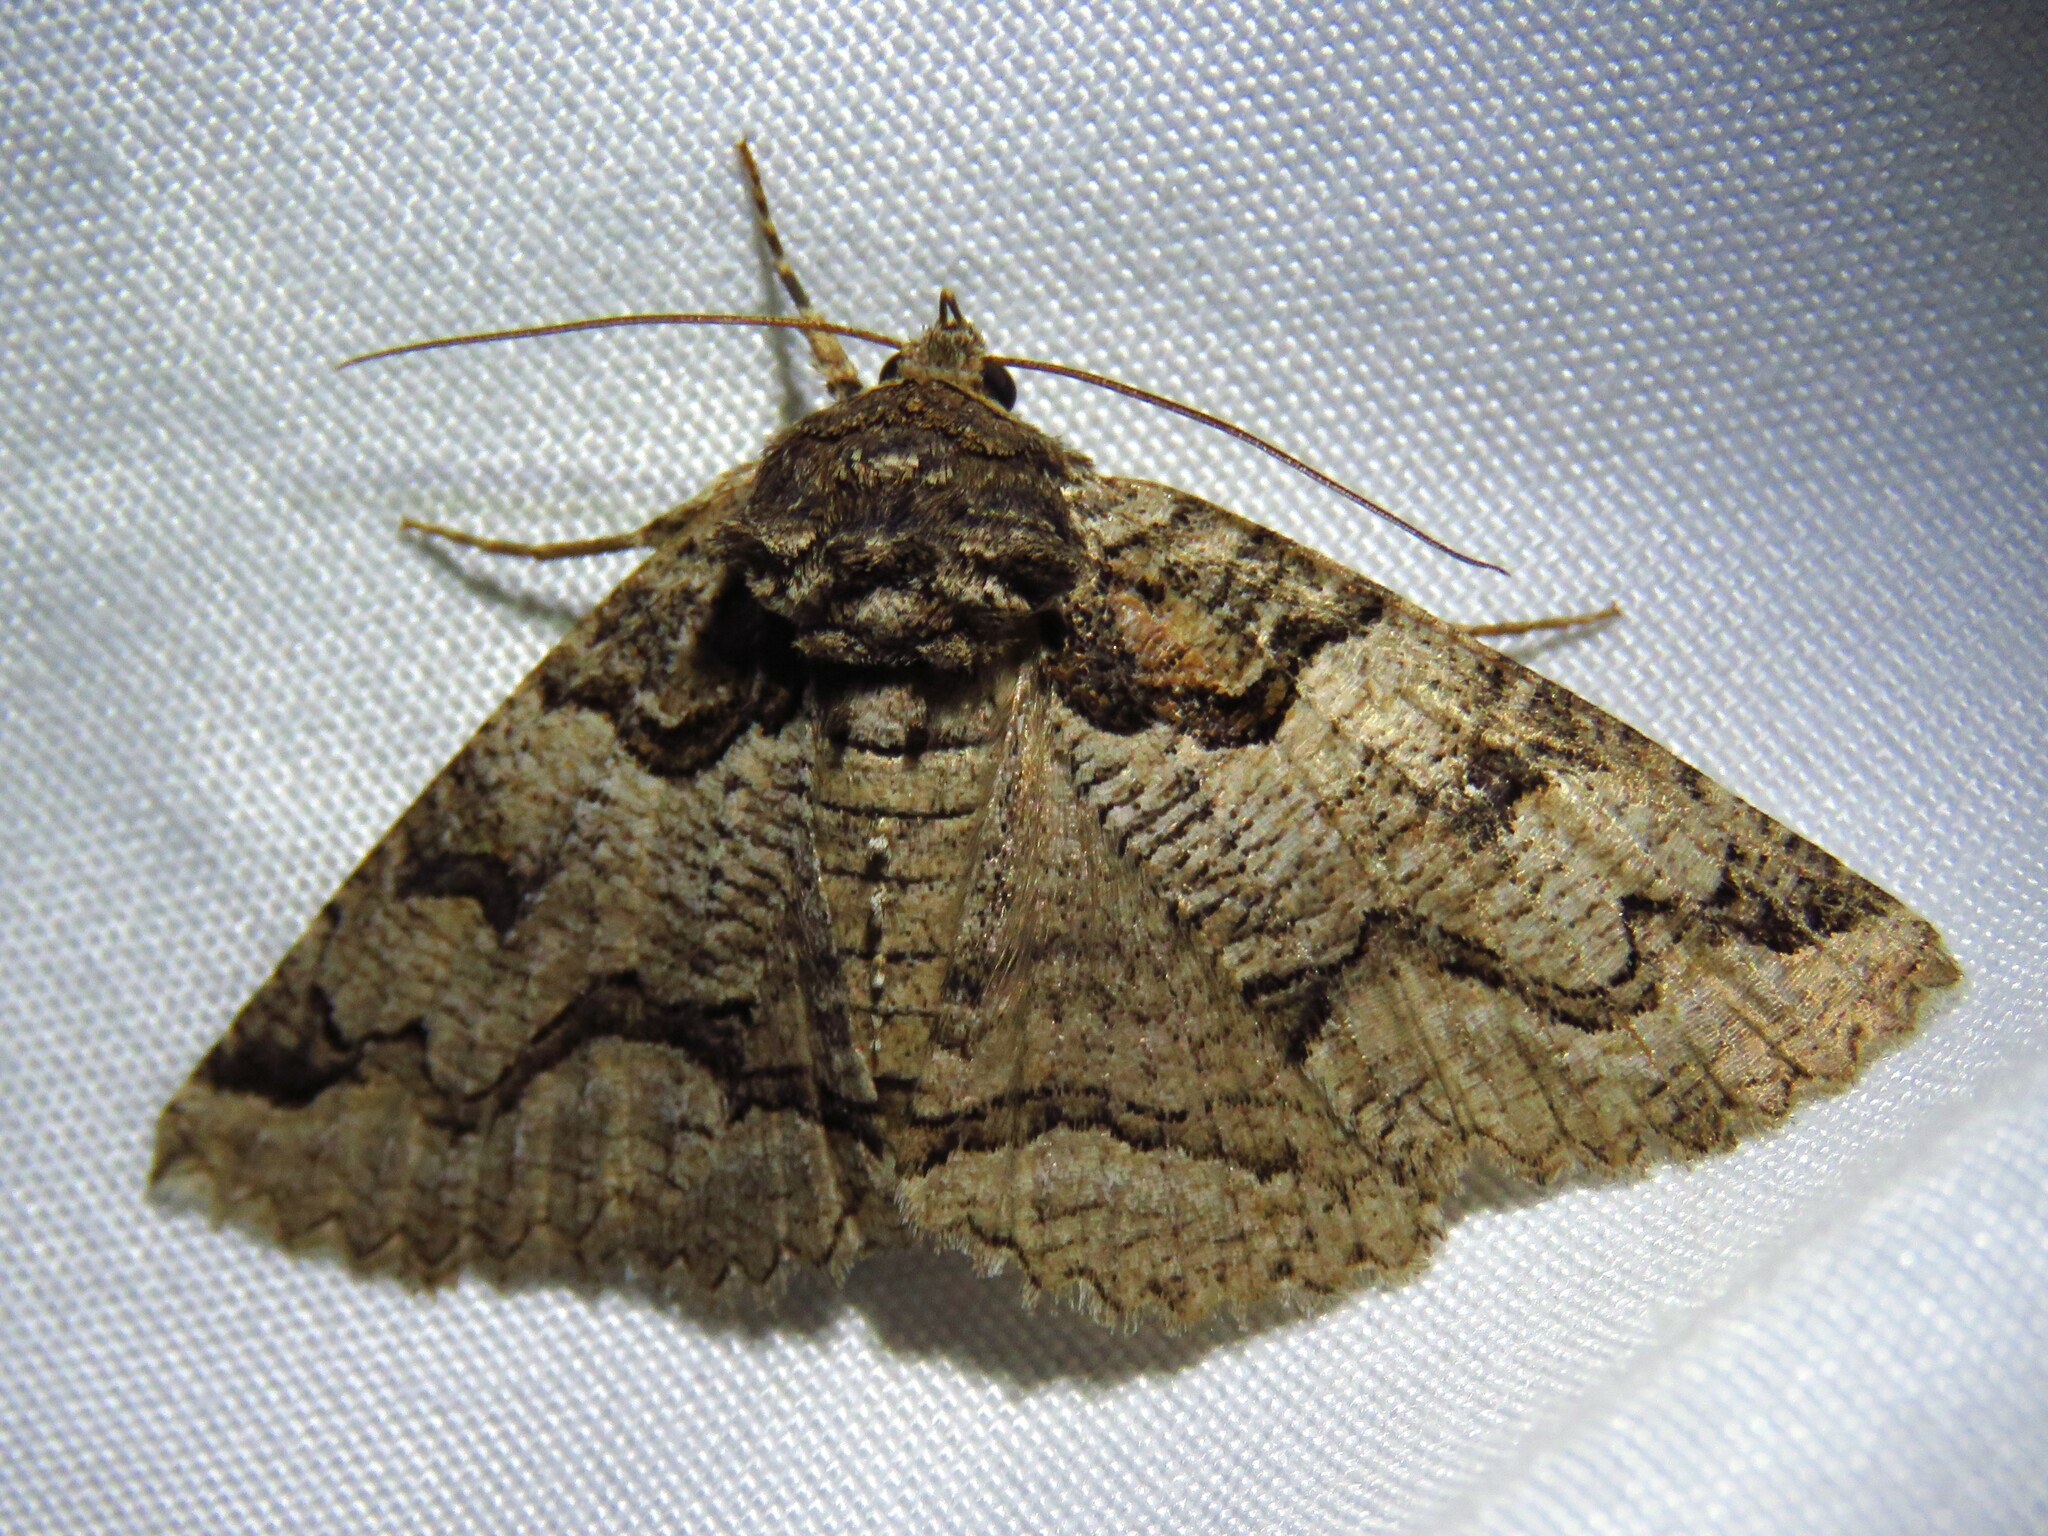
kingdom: Animalia
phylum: Arthropoda
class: Insecta
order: Lepidoptera
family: Erebidae
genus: Zale
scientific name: Zale calycanthata
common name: Double-banded zale
